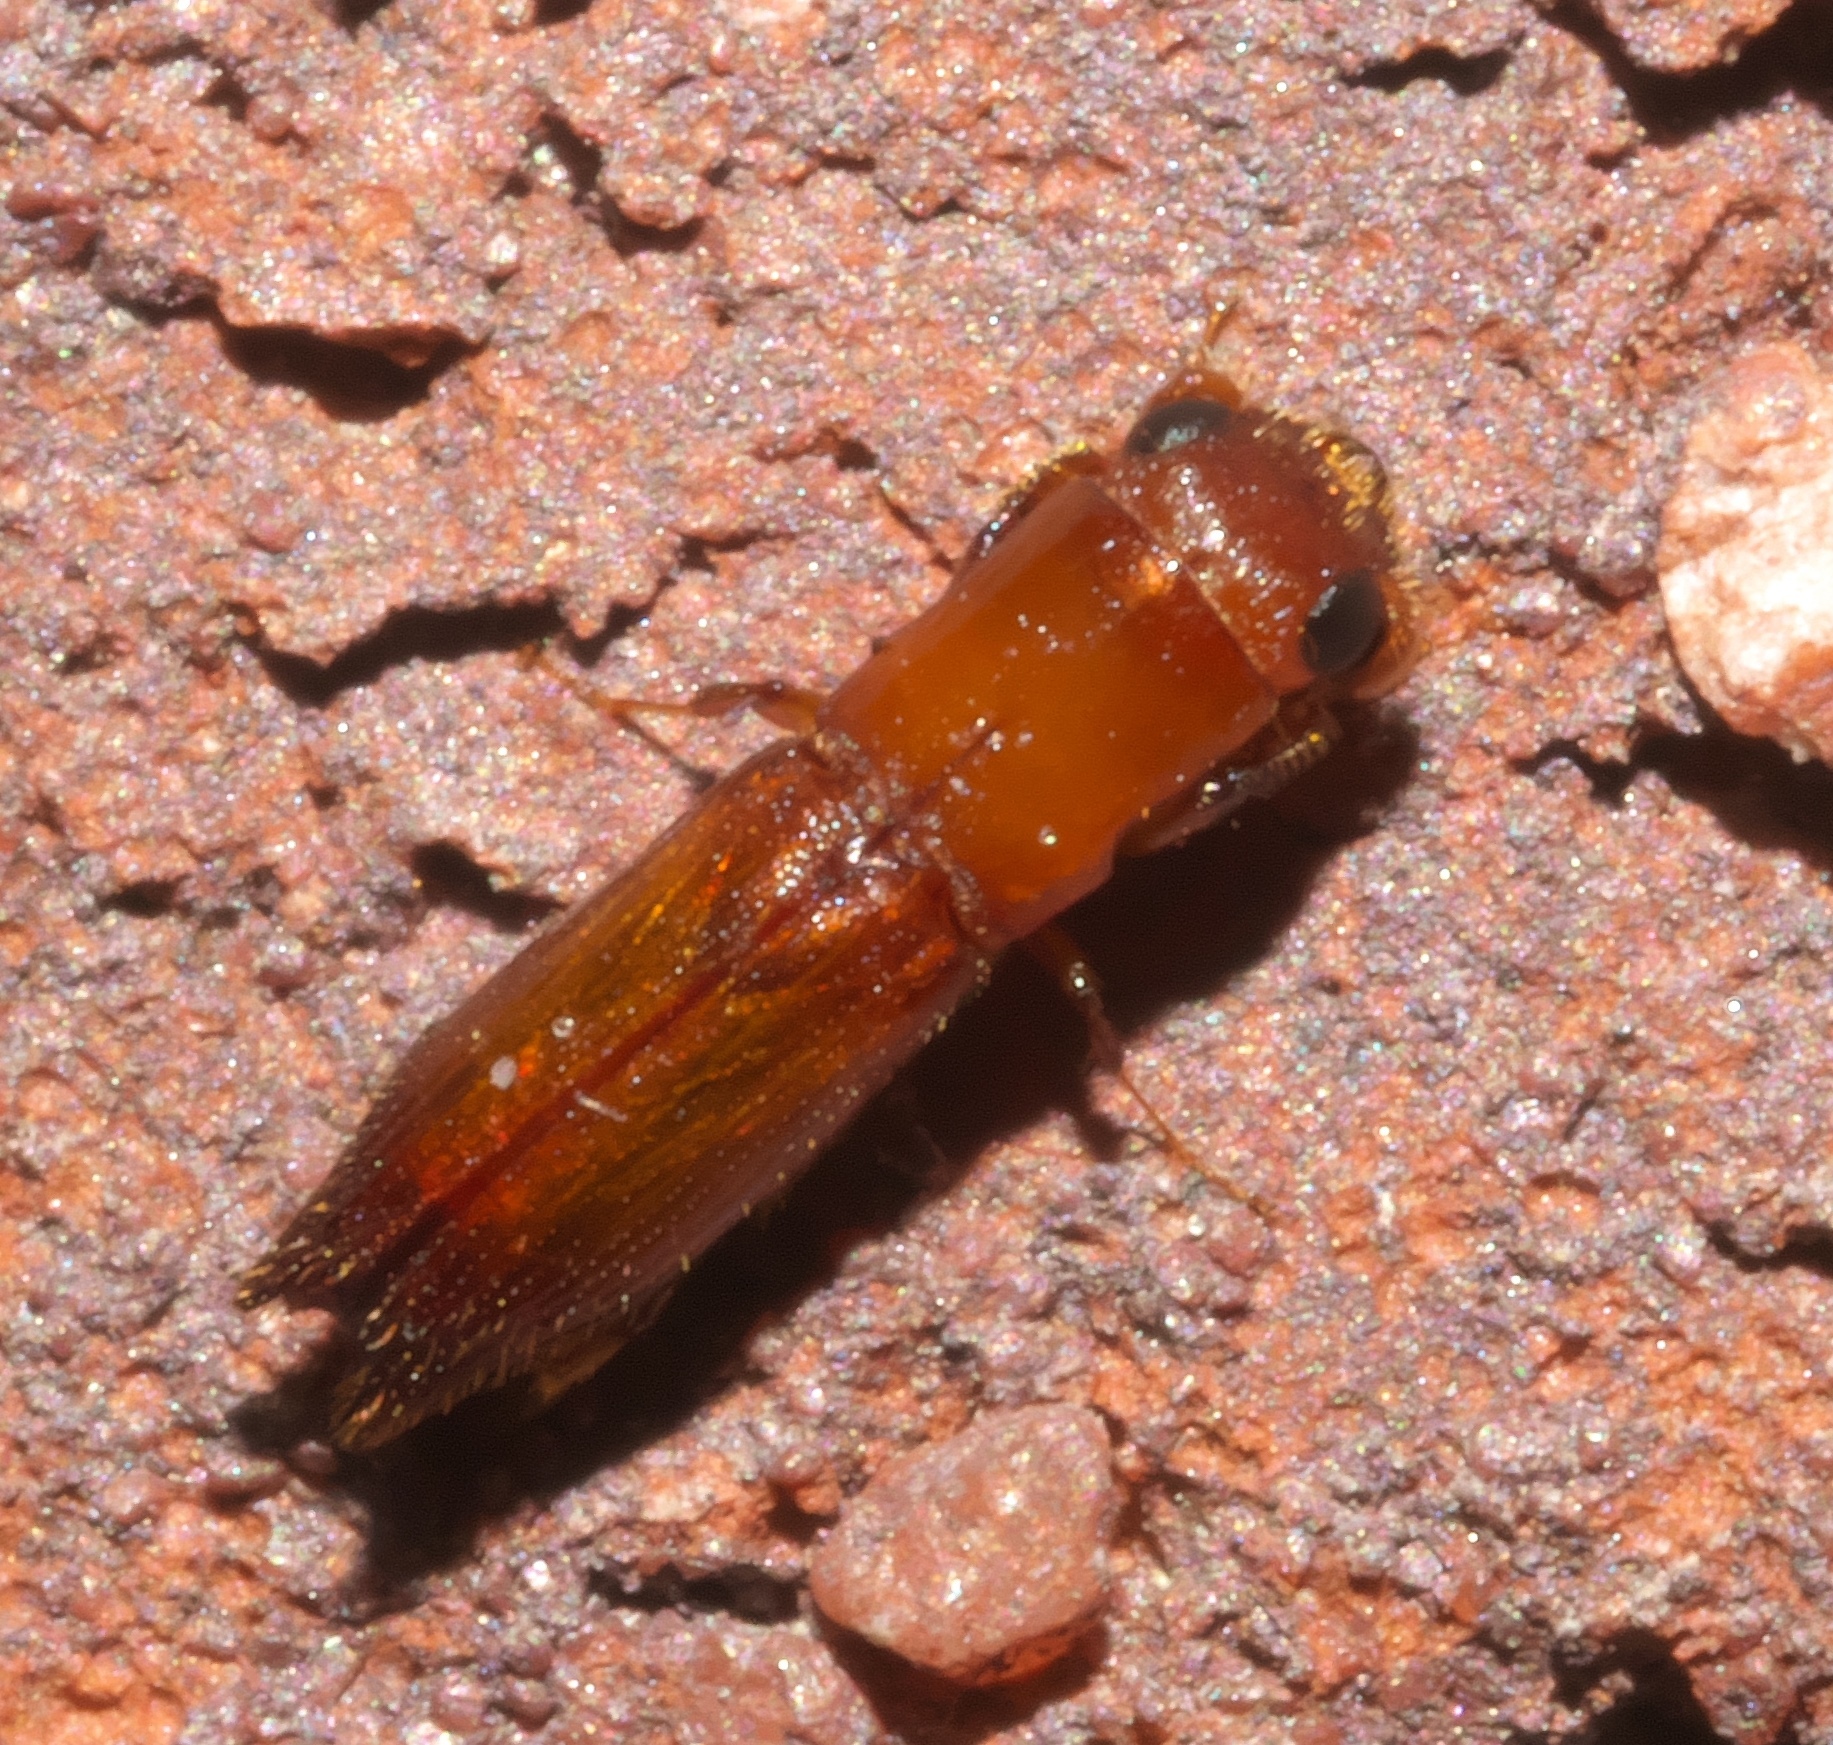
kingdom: Animalia
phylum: Arthropoda
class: Insecta
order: Coleoptera
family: Curculionidae
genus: Euplatypus
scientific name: Euplatypus compositus
